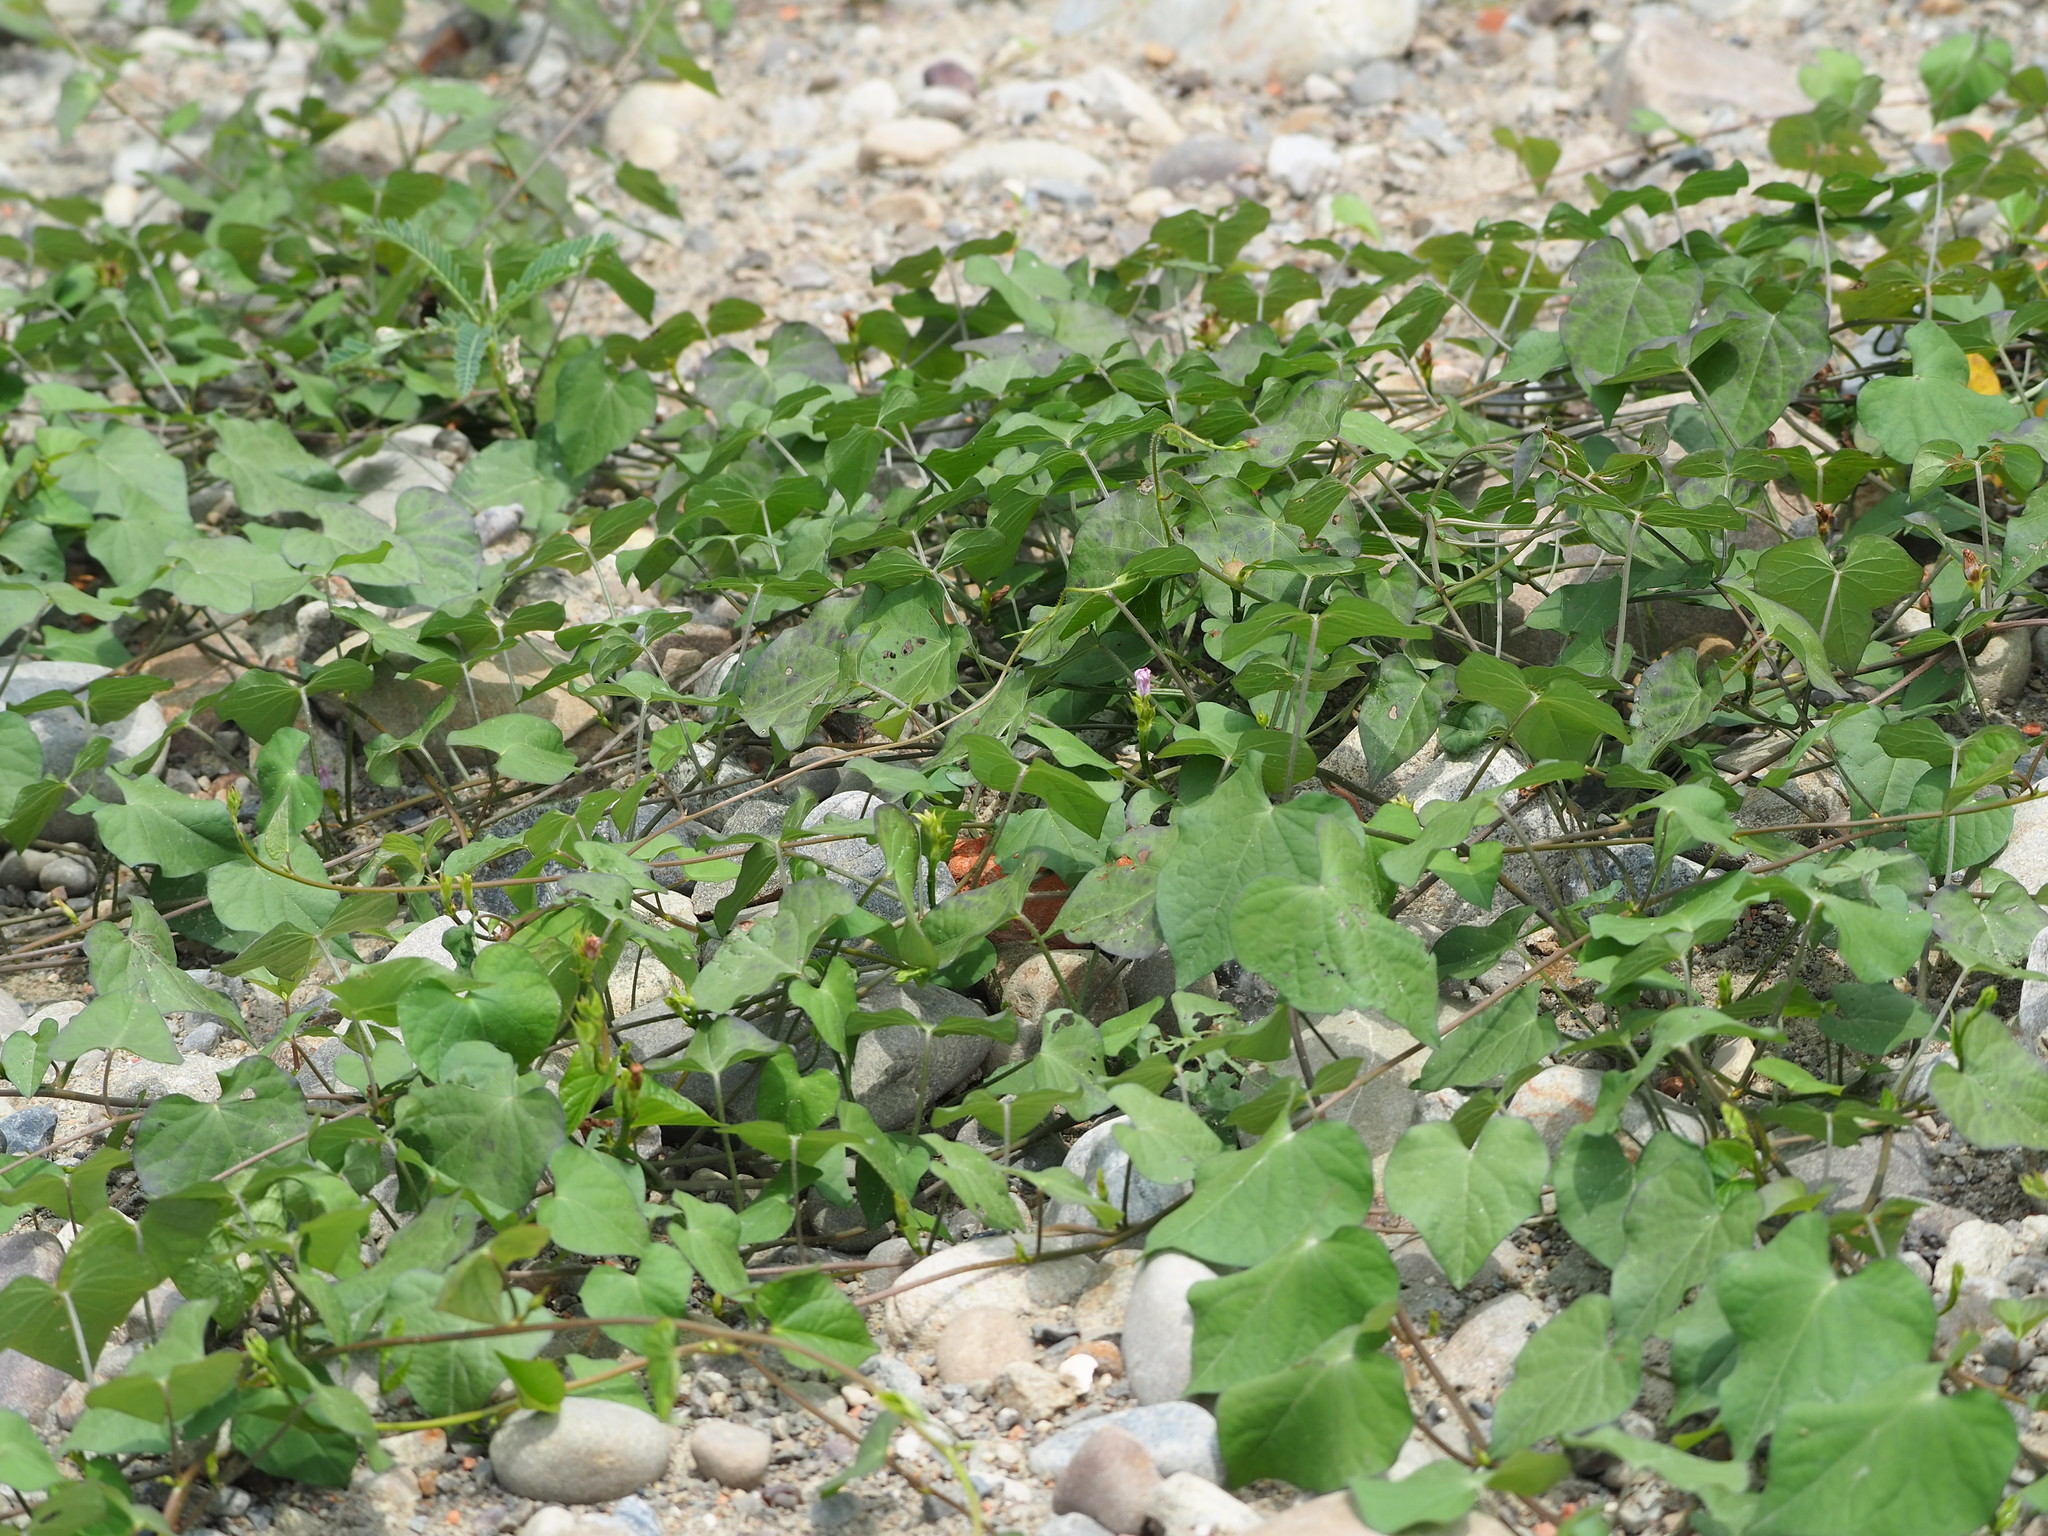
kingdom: Plantae
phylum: Tracheophyta
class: Magnoliopsida
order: Solanales
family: Convolvulaceae
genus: Ipomoea
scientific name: Ipomoea triloba
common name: Little-bell
